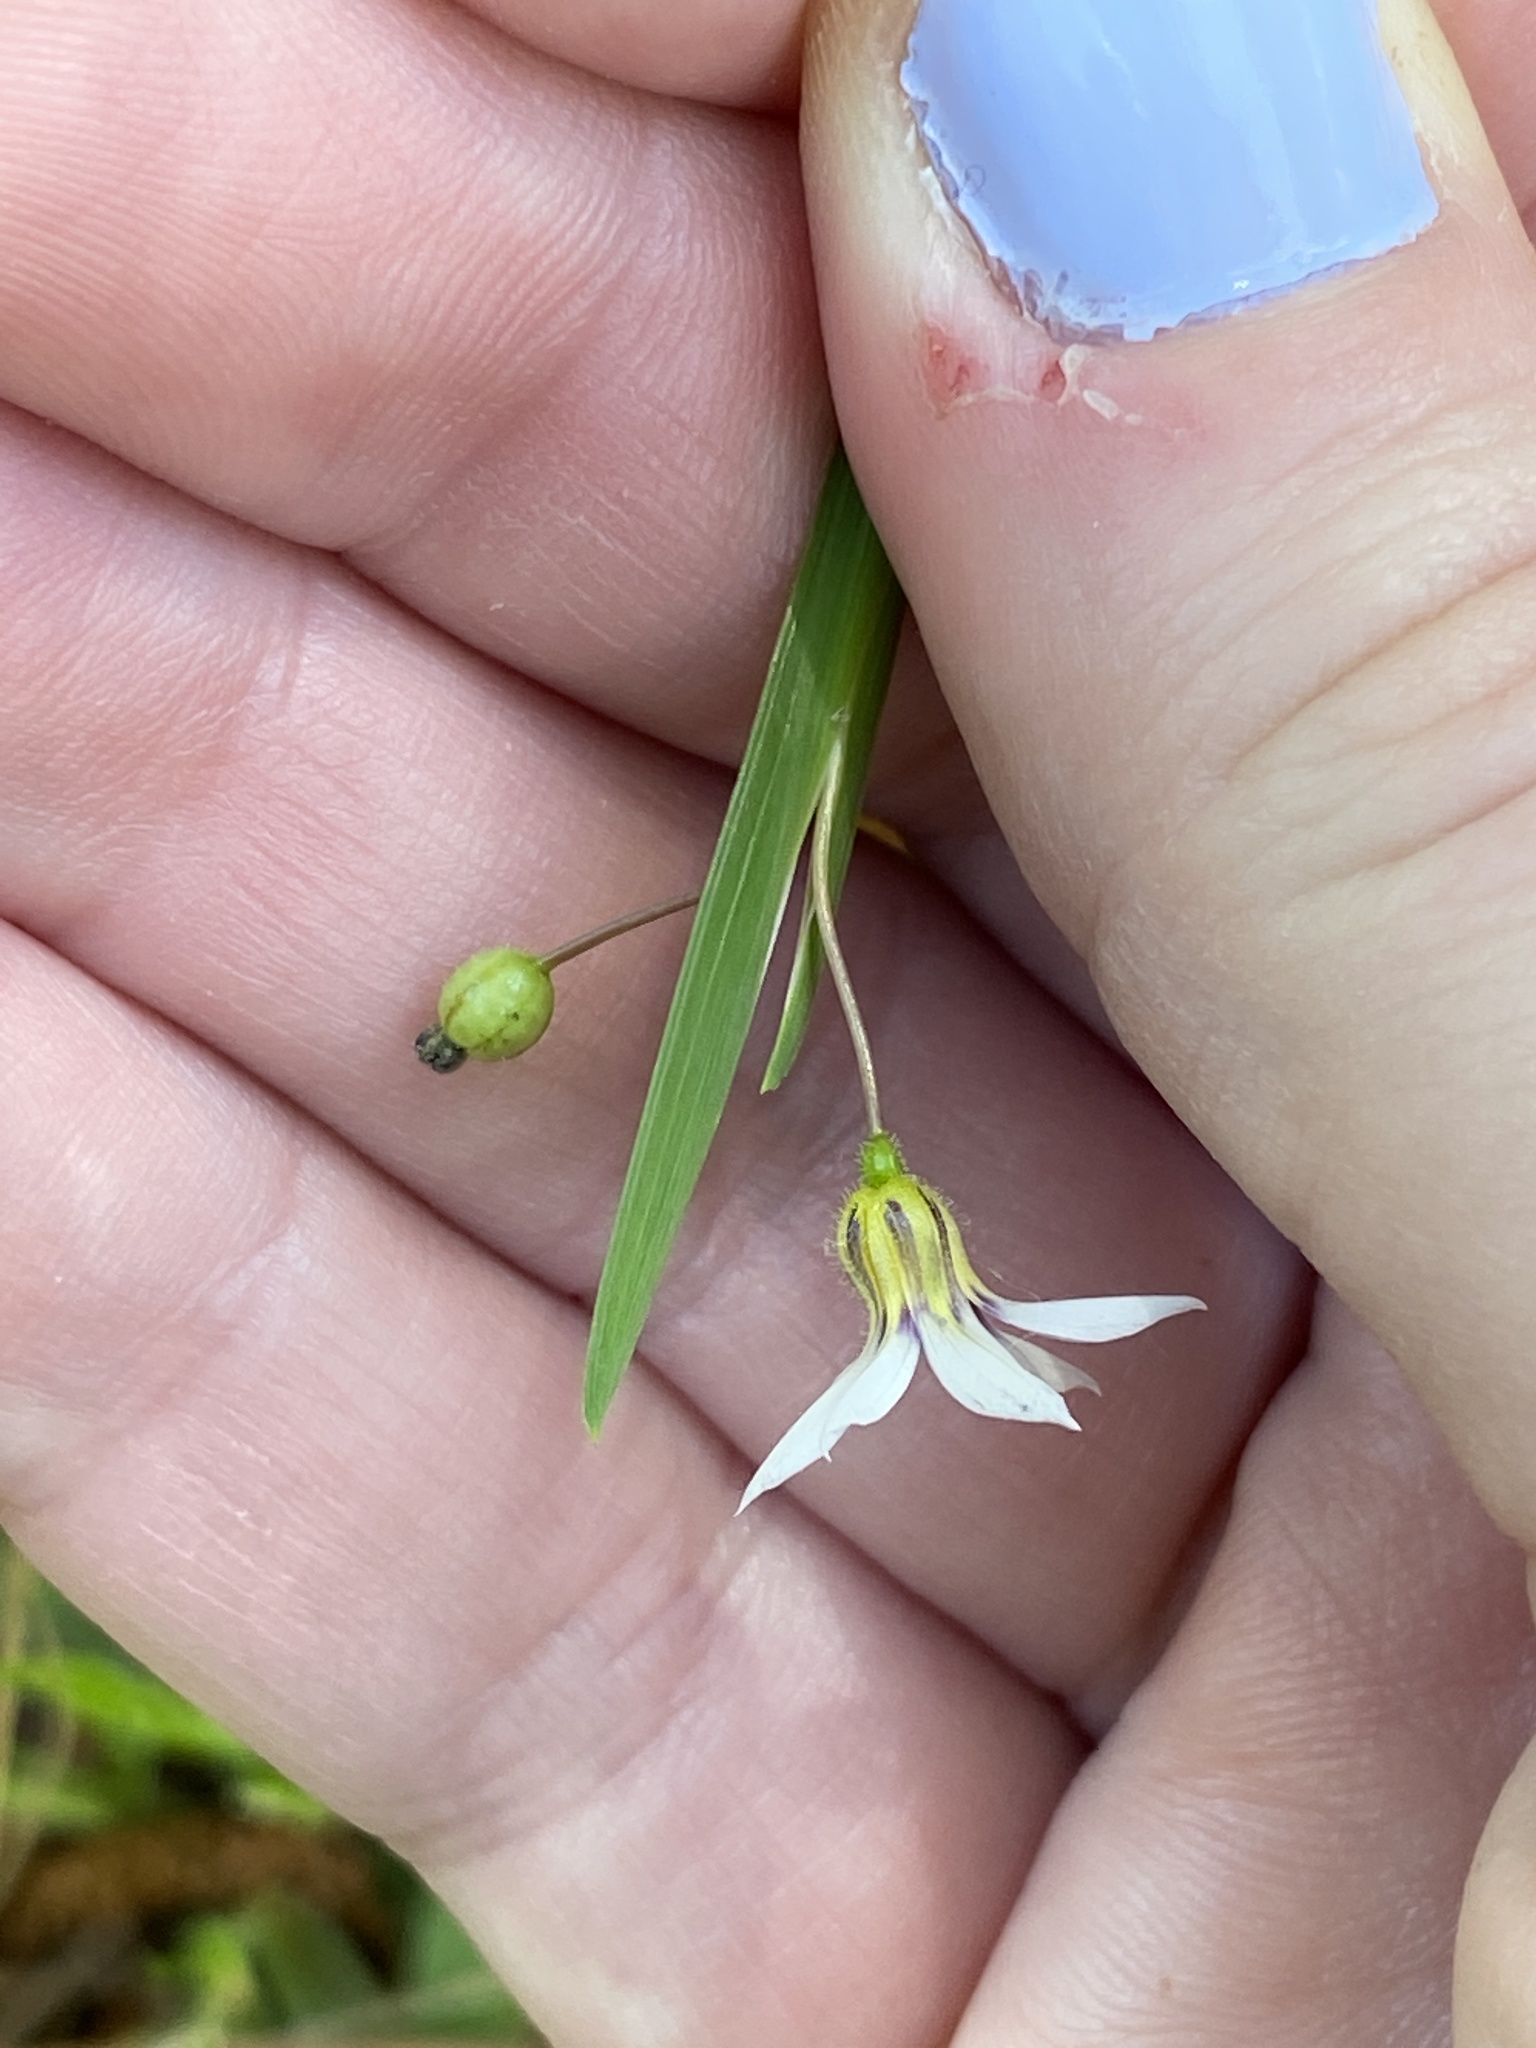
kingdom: Plantae
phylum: Tracheophyta
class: Liliopsida
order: Asparagales
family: Iridaceae
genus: Sisyrinchium
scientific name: Sisyrinchium micranthum
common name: Bermuda pigroot
